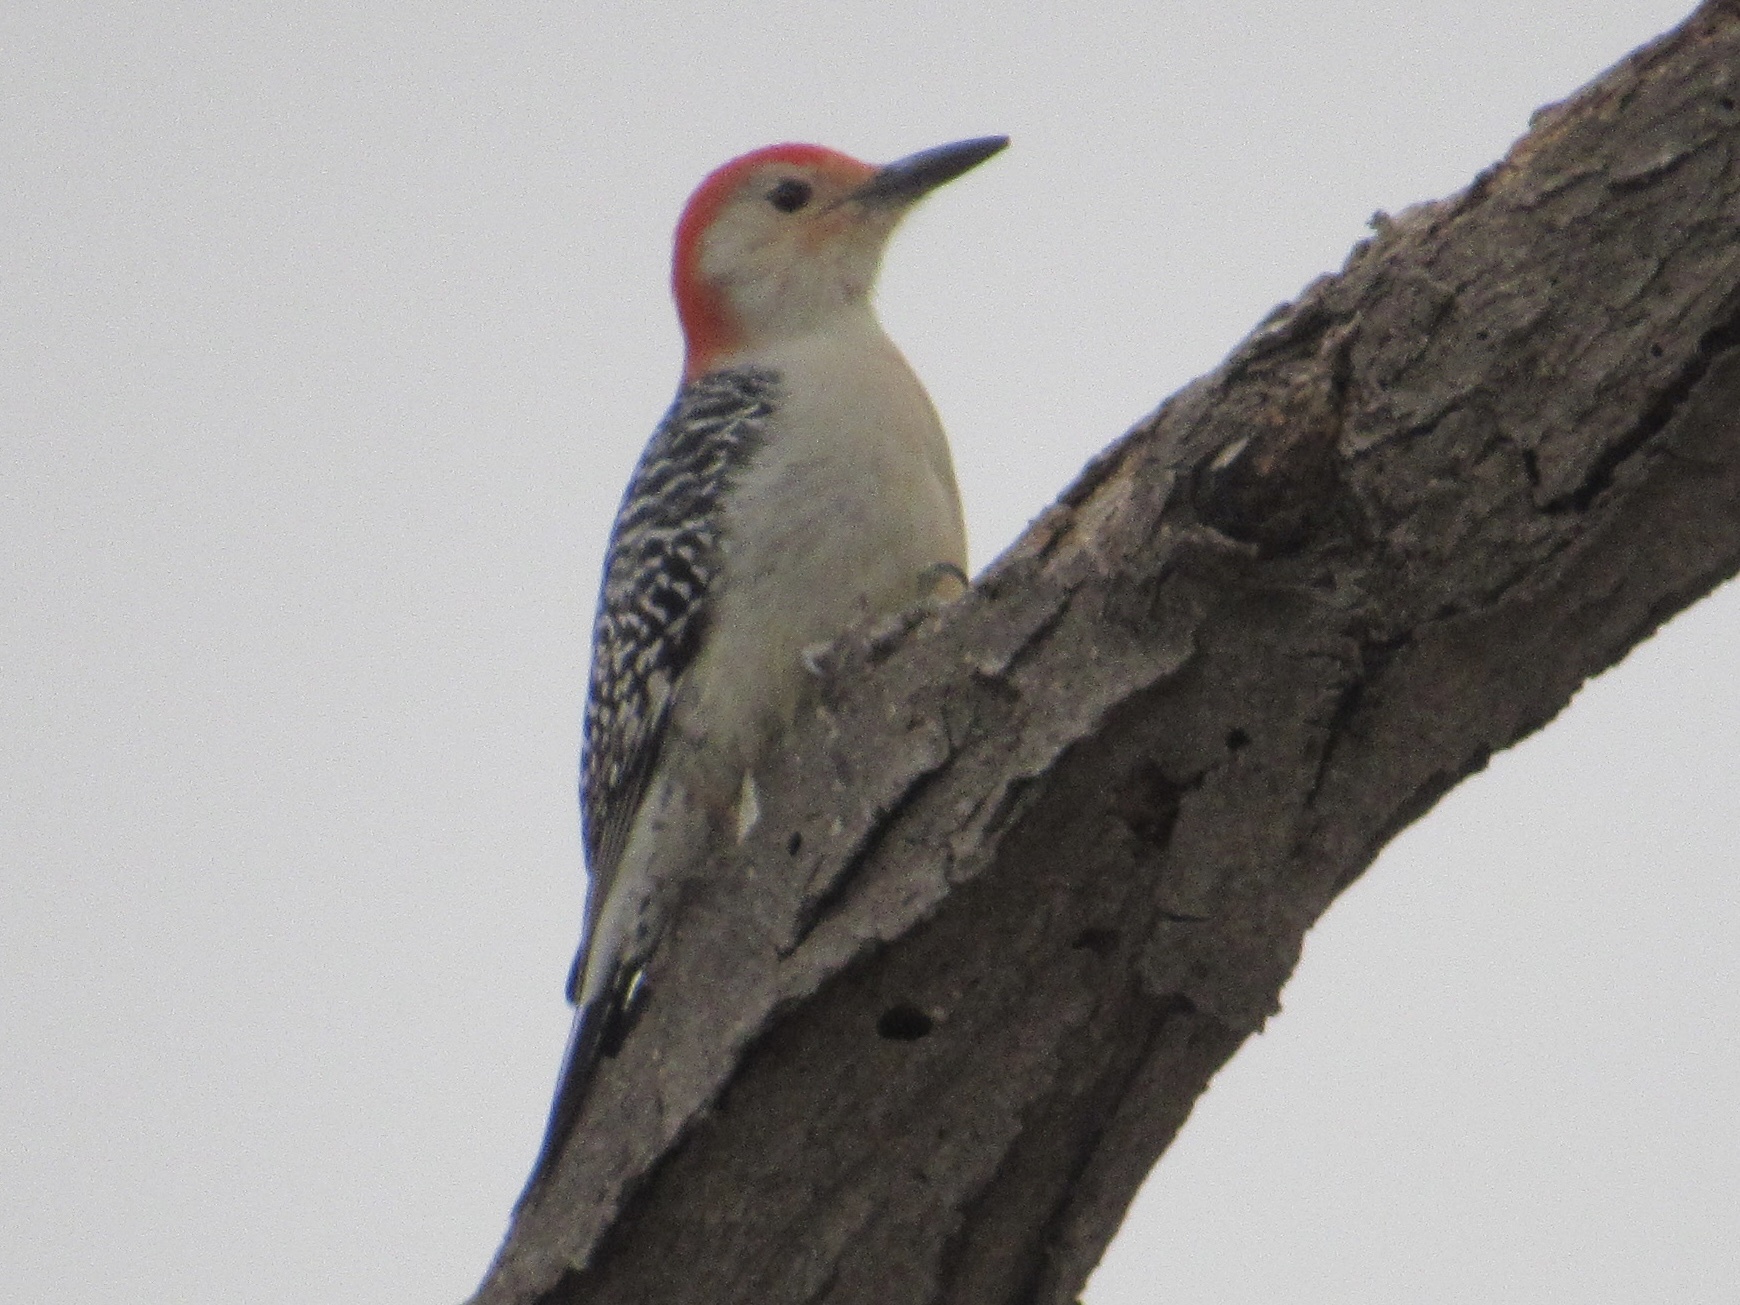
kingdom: Animalia
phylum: Chordata
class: Aves
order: Piciformes
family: Picidae
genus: Melanerpes
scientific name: Melanerpes carolinus
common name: Red-bellied woodpecker
